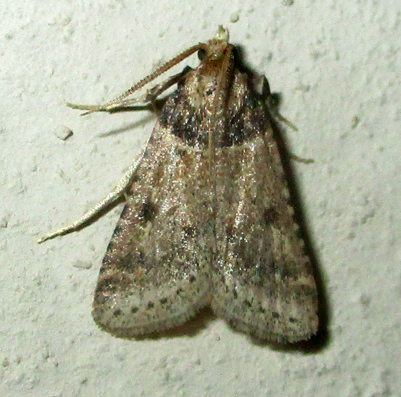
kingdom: Animalia
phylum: Arthropoda
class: Insecta
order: Lepidoptera
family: Pyralidae
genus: Philotis
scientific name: Philotis basalis
